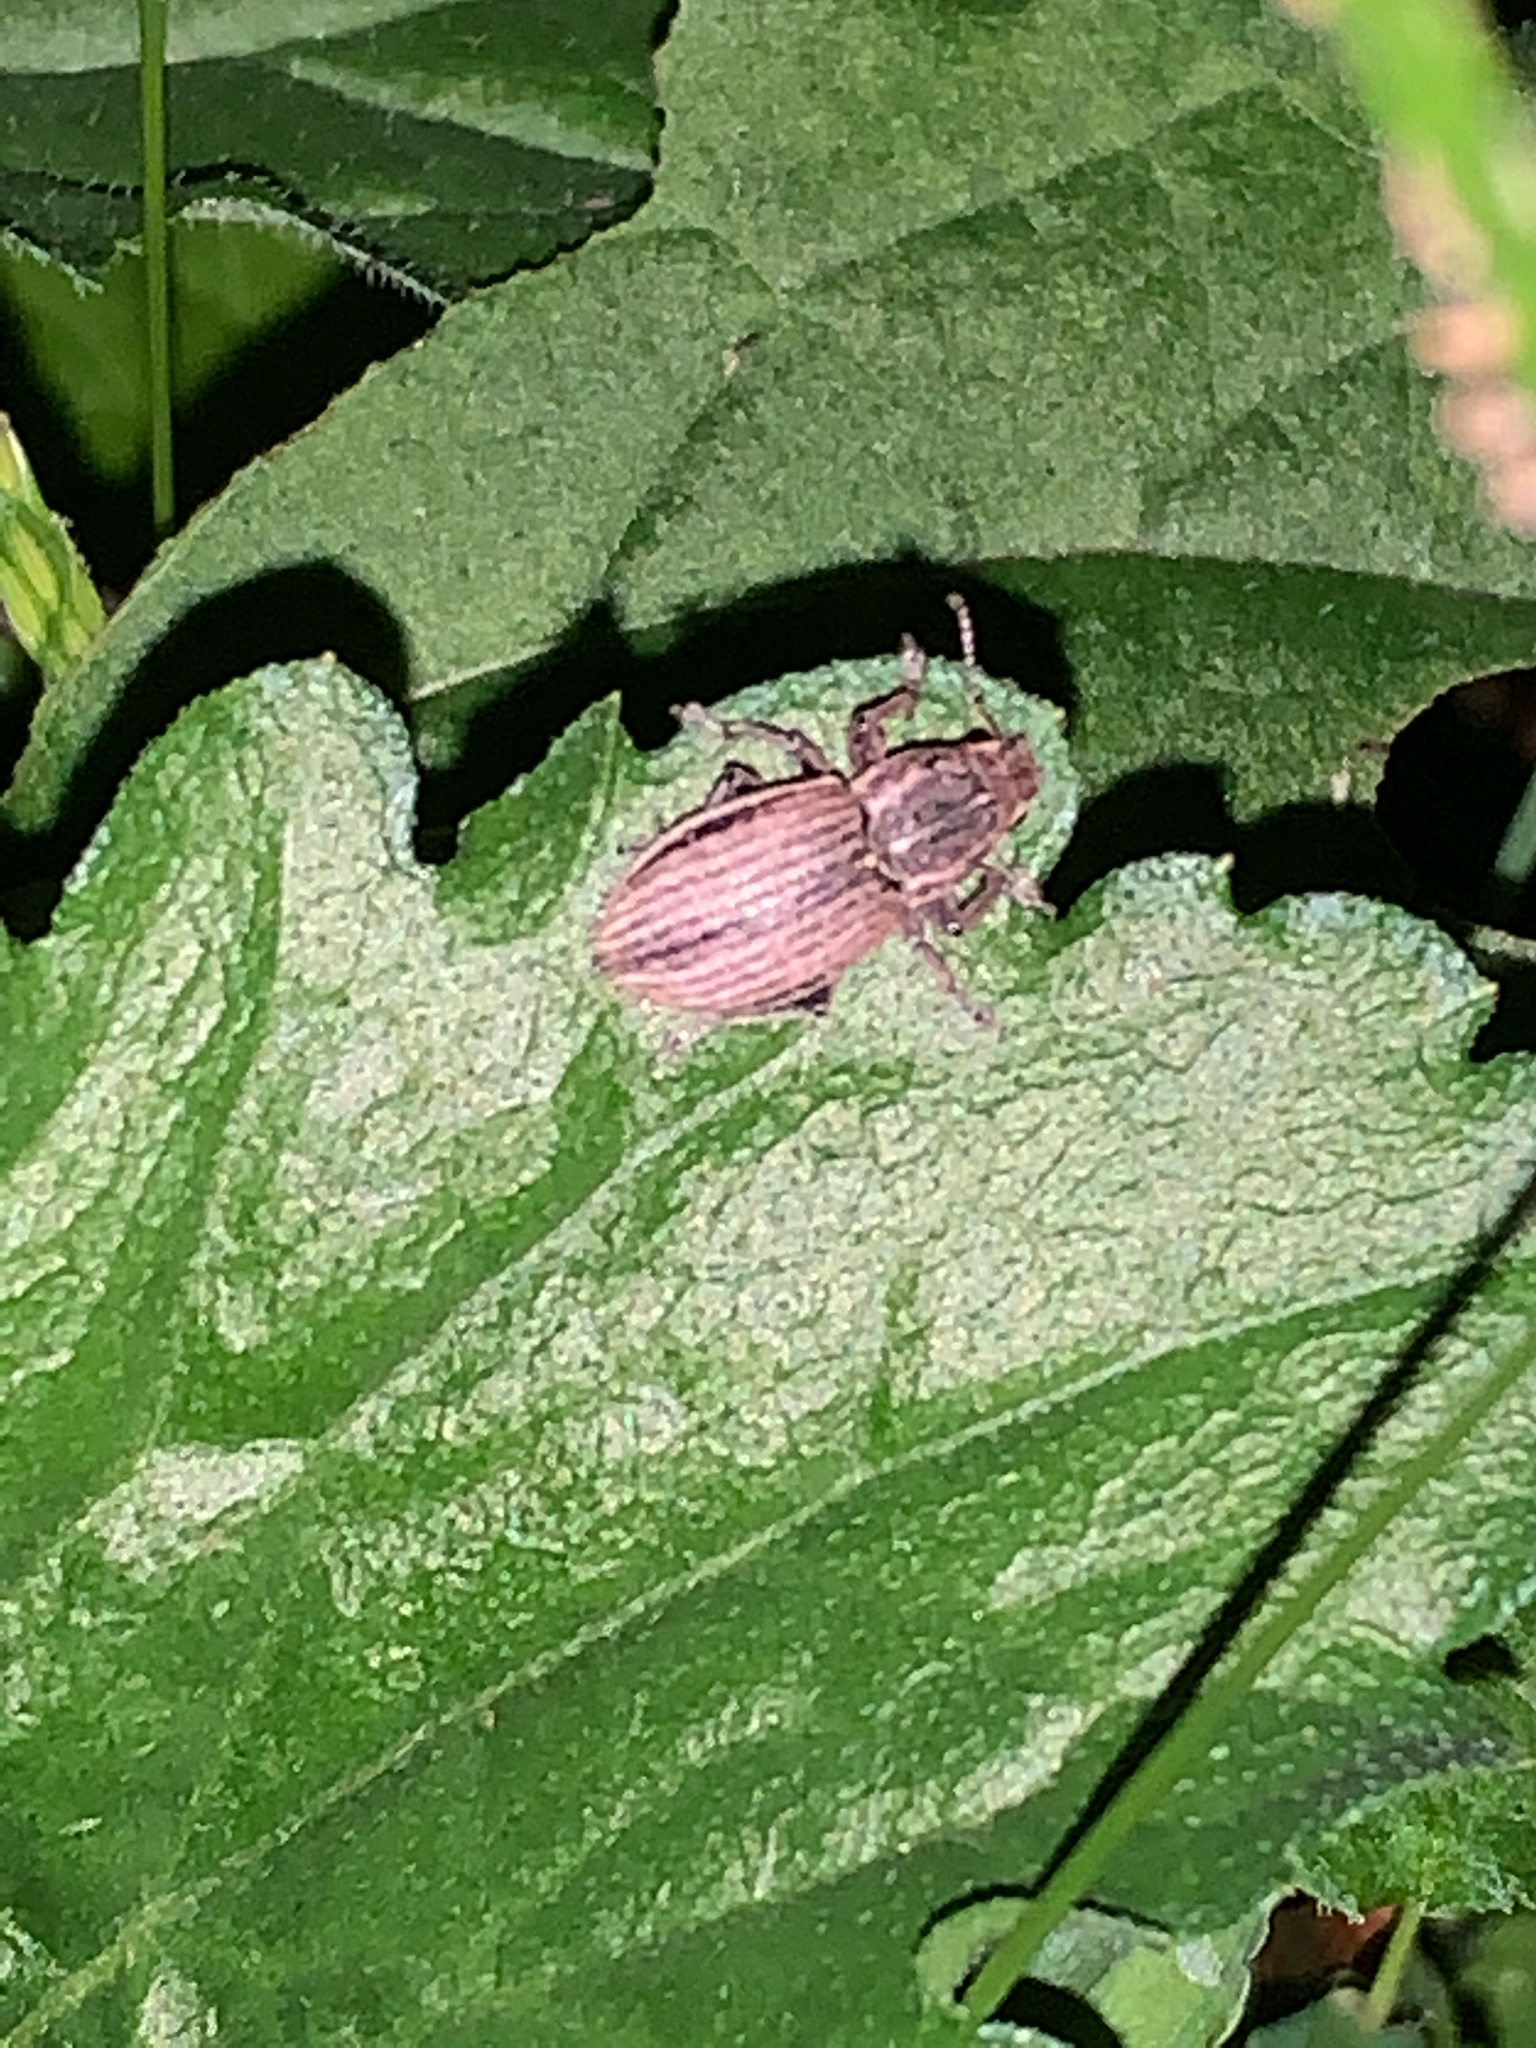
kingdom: Animalia
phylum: Arthropoda
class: Insecta
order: Coleoptera
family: Curculionidae
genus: Naupactus
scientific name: Naupactus leucoloma
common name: Whitefringed beetle
